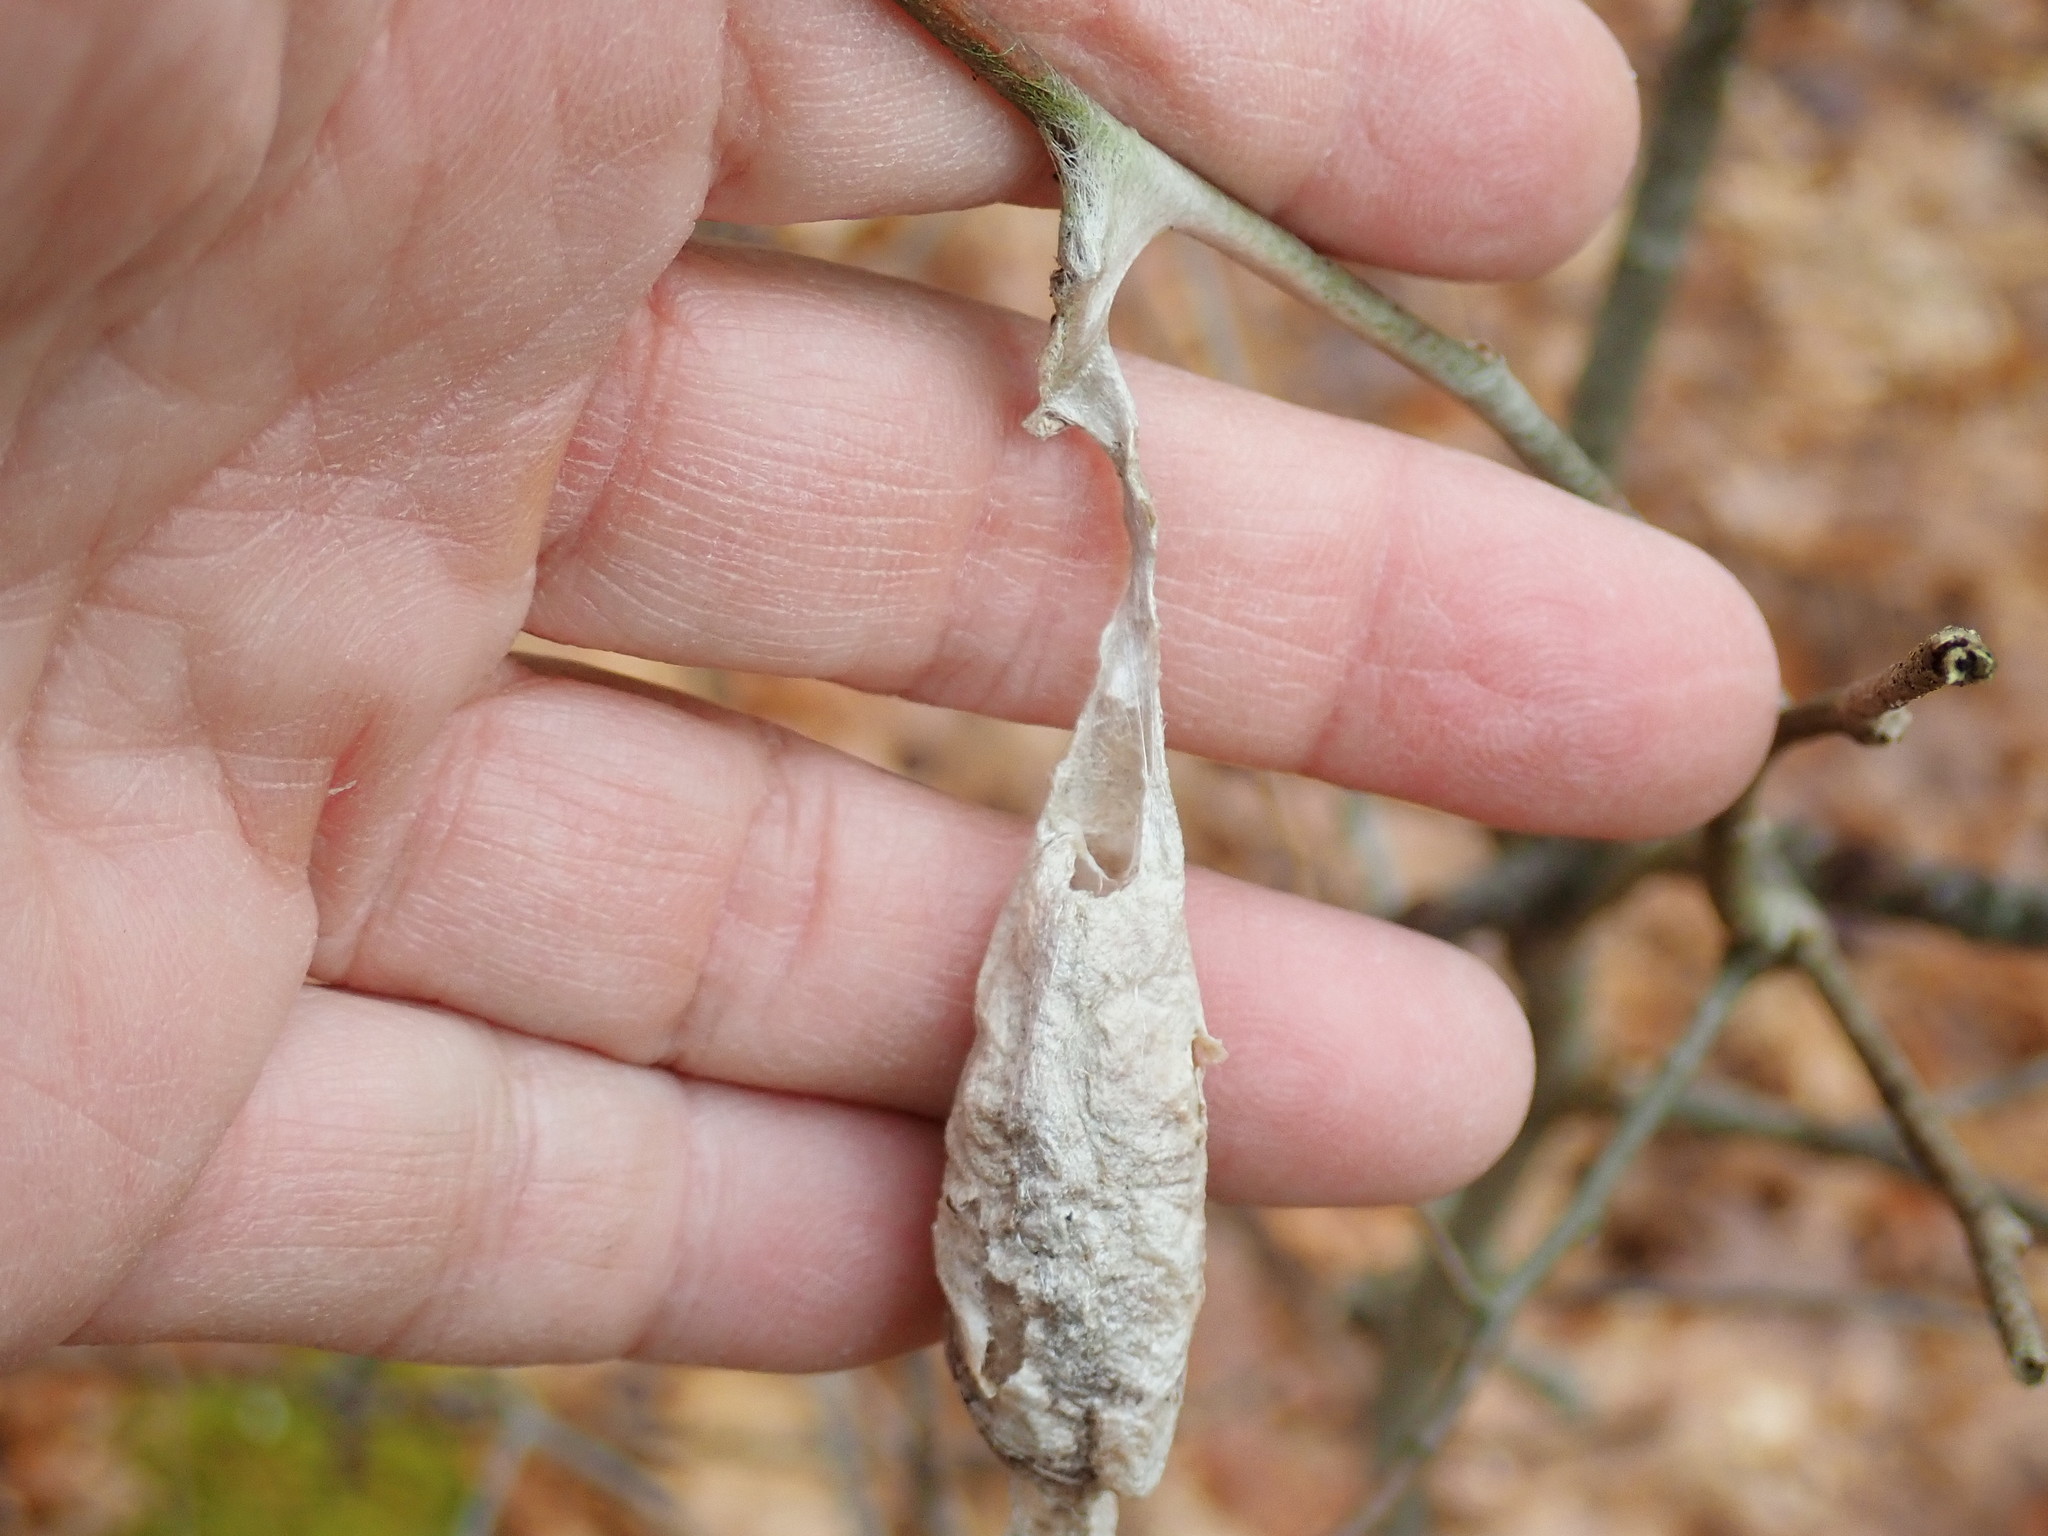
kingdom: Animalia
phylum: Arthropoda
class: Insecta
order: Lepidoptera
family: Saturniidae
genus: Callosamia
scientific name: Callosamia promethea
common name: Promethea silkmoth
